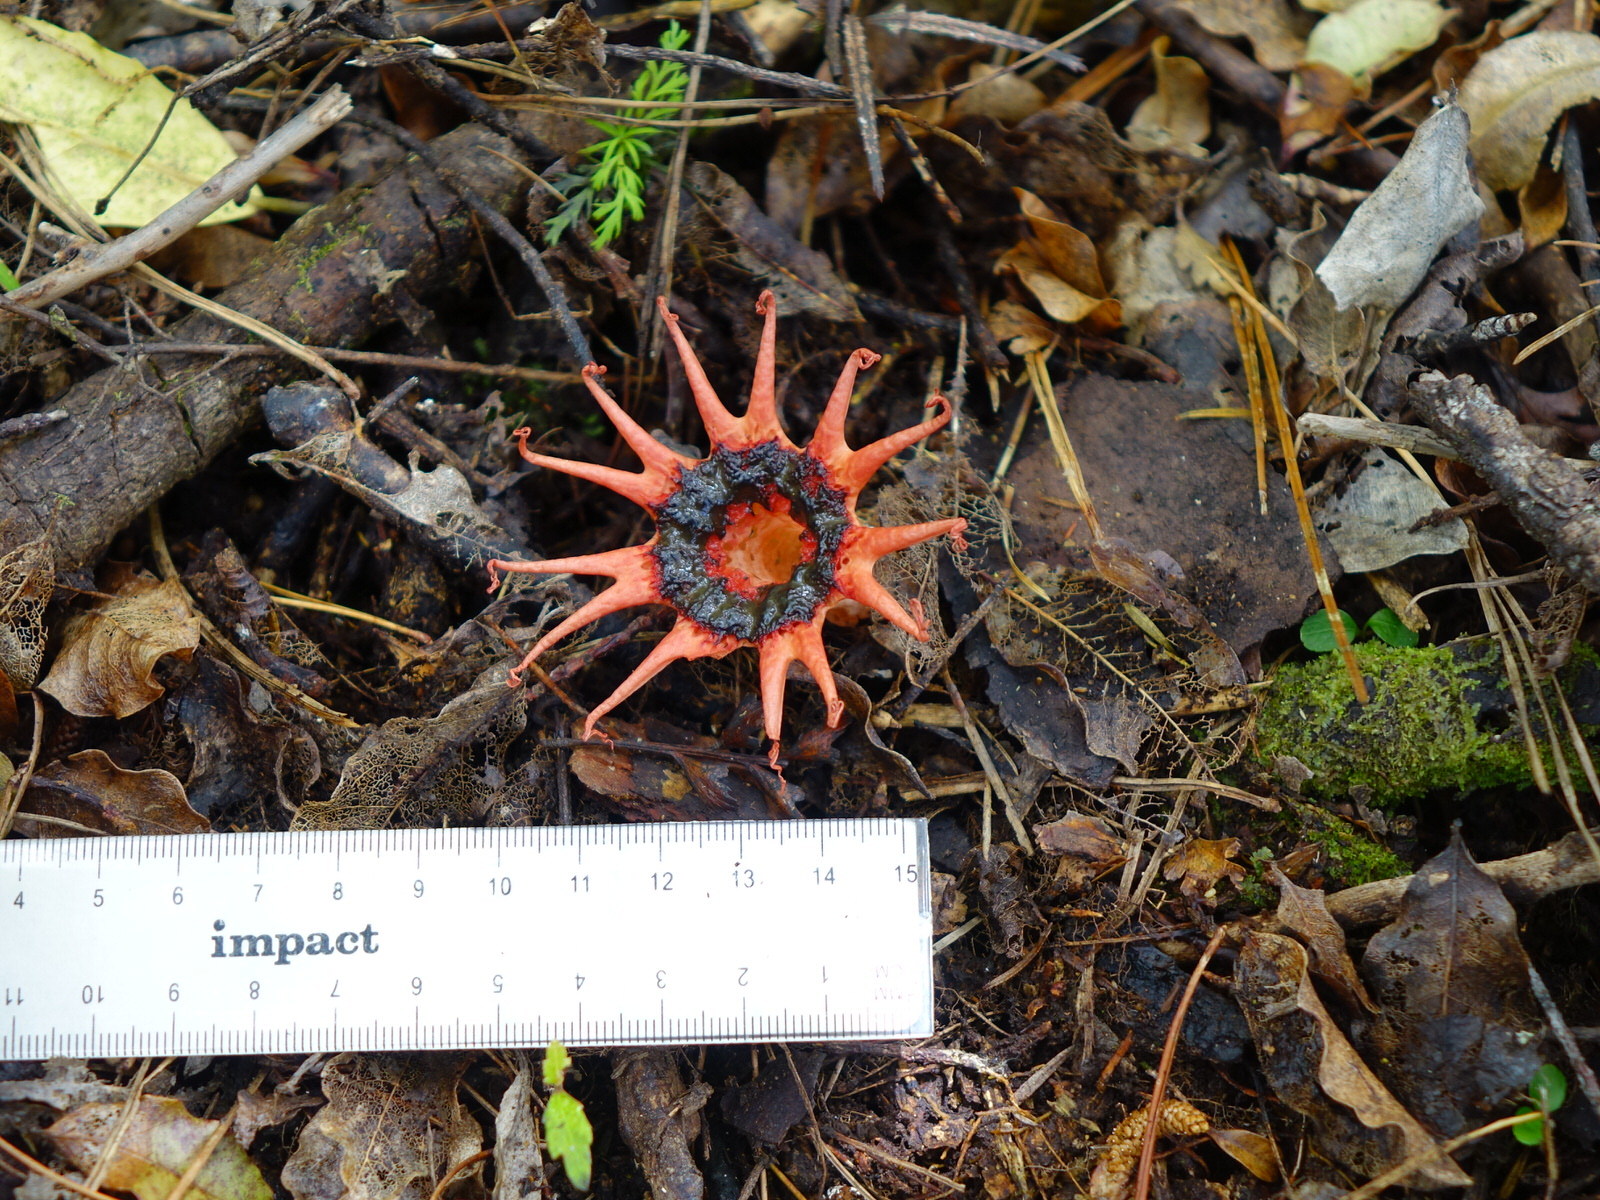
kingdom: Fungi
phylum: Basidiomycota
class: Agaricomycetes
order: Phallales
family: Phallaceae
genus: Aseroe
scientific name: Aseroe rubra
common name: Starfish fungus
